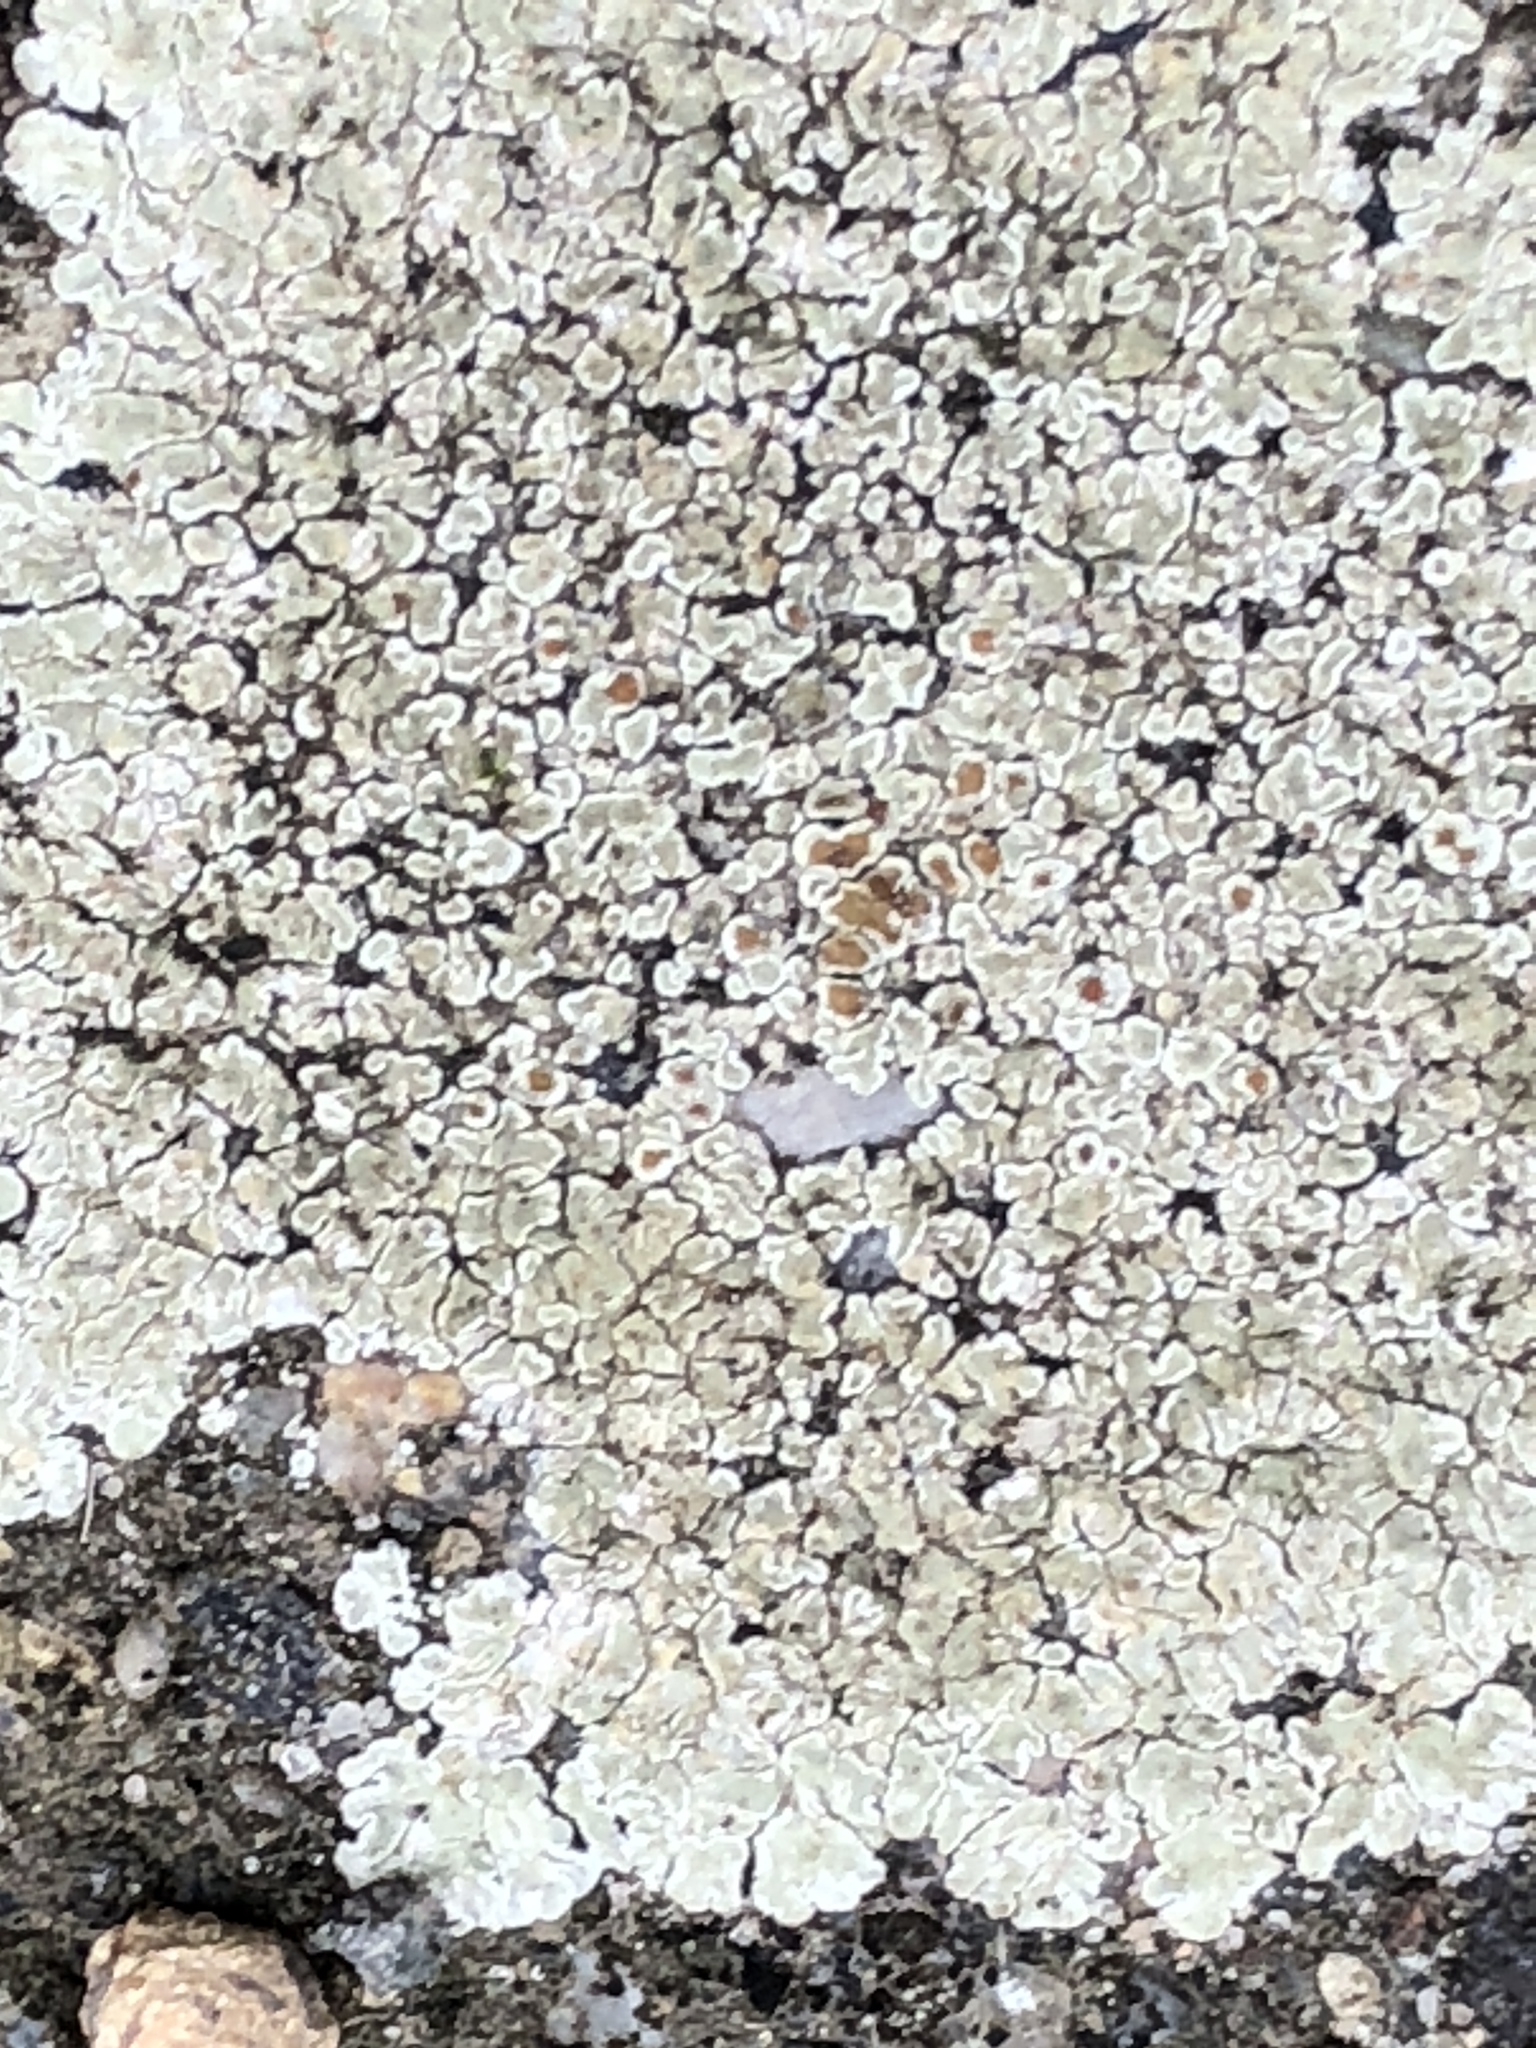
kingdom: Fungi
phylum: Ascomycota
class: Lecanoromycetes
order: Lecanorales
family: Lecanoraceae
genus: Protoparmeliopsis
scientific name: Protoparmeliopsis muralis
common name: Stonewall rim lichen
